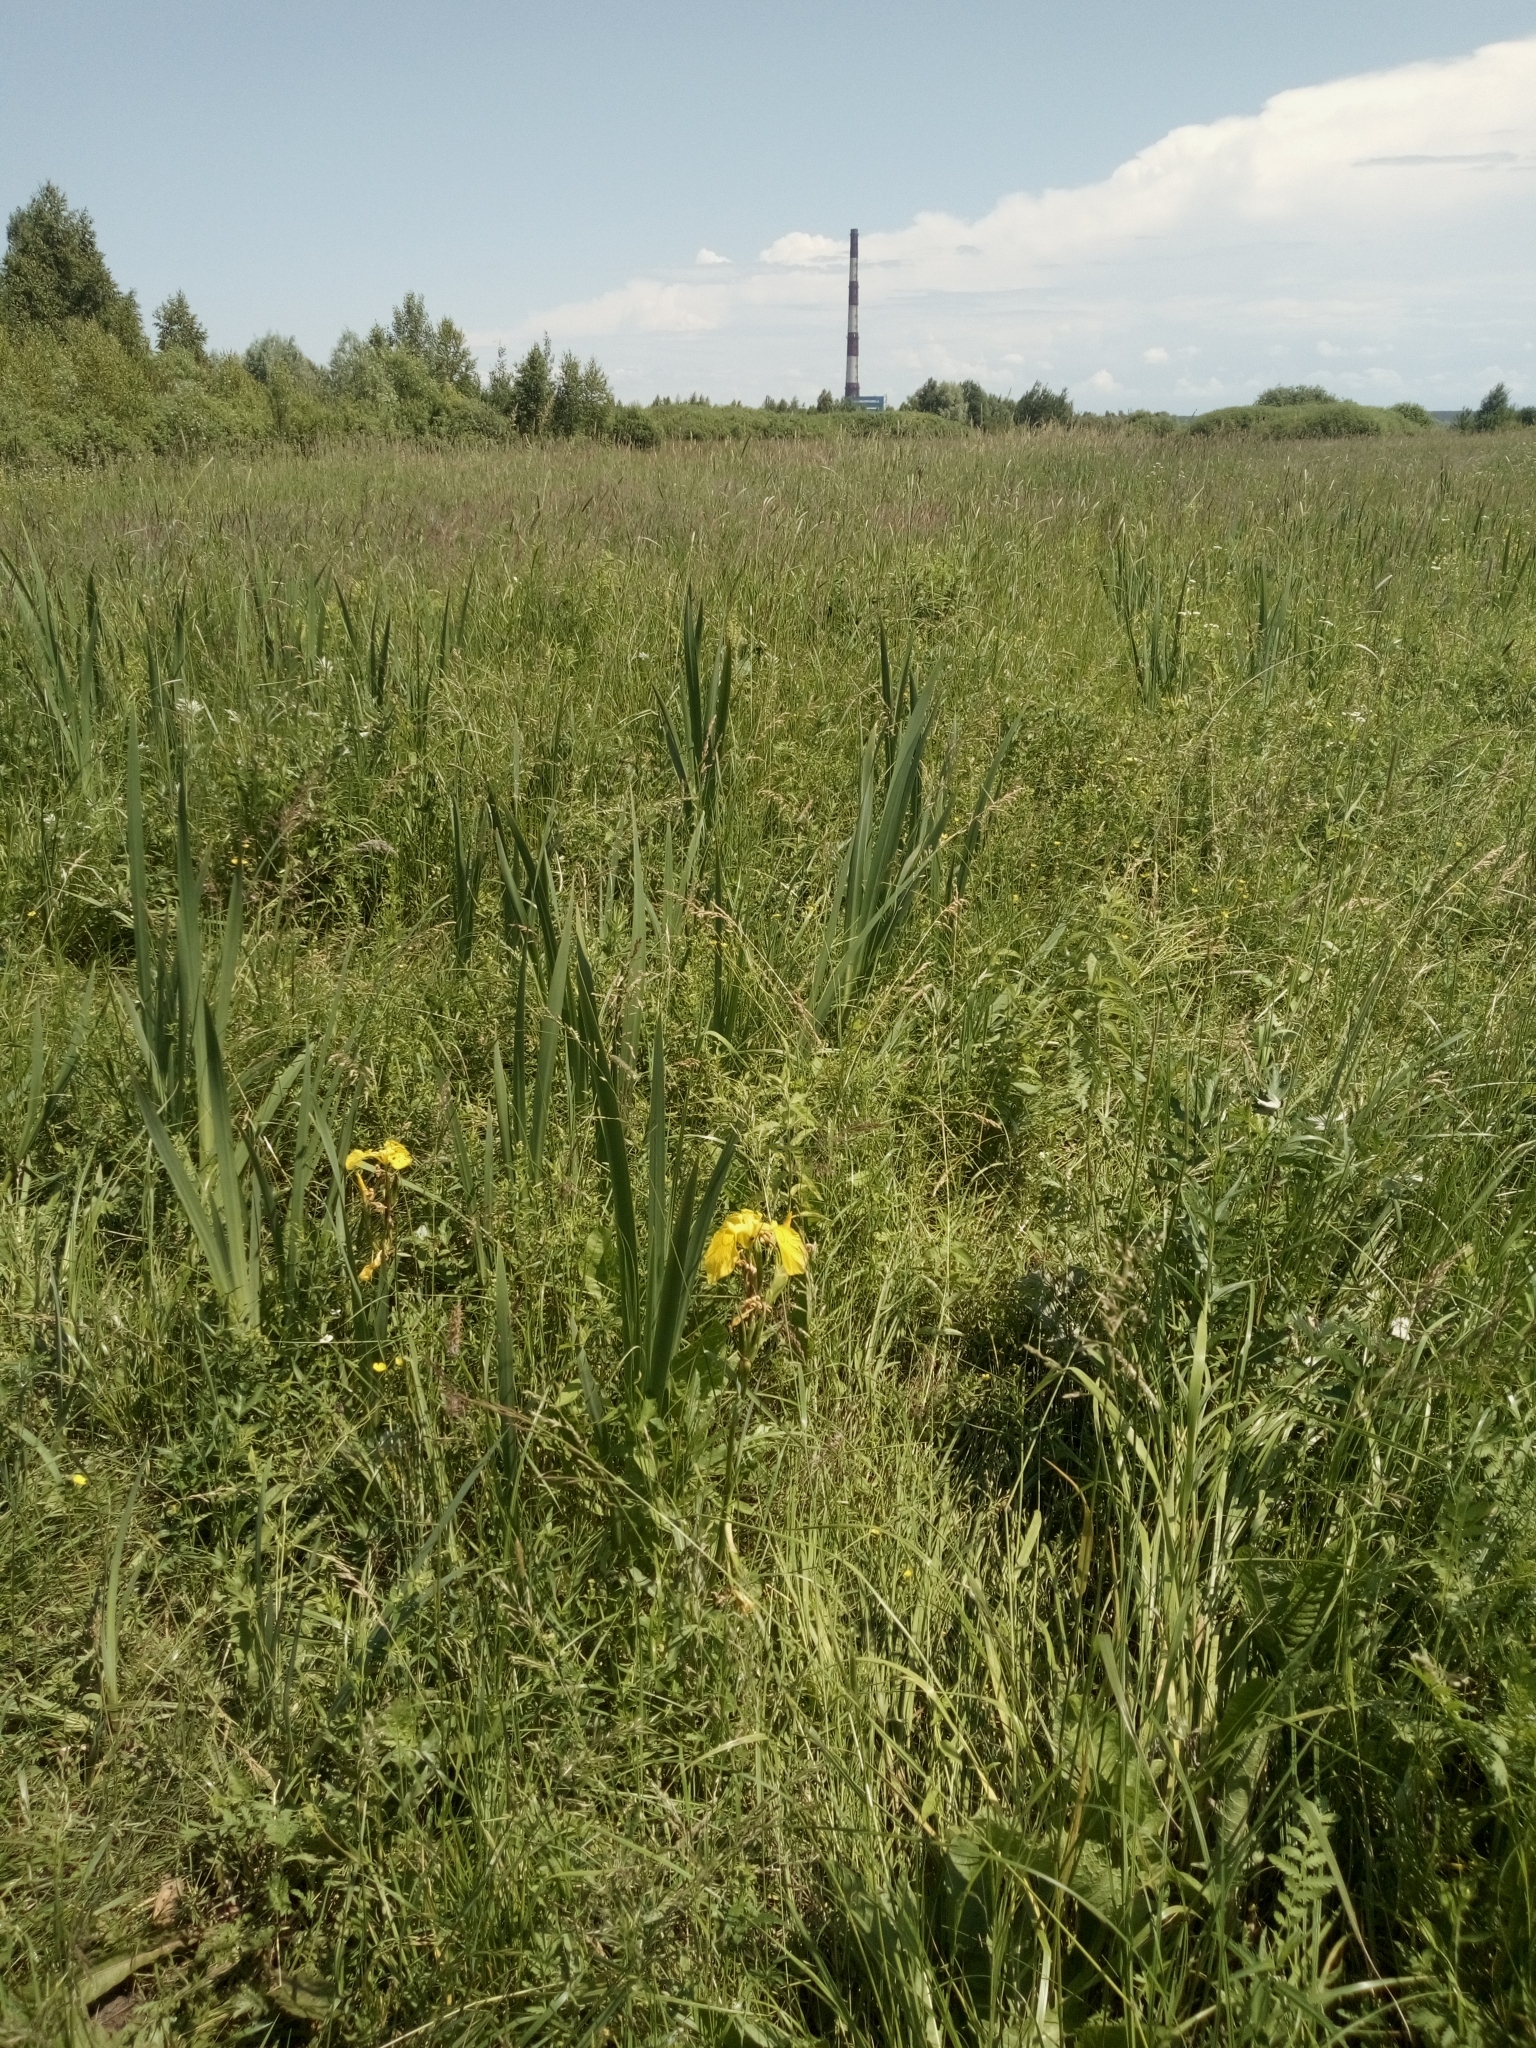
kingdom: Plantae
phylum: Tracheophyta
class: Liliopsida
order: Asparagales
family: Iridaceae
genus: Iris
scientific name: Iris pseudacorus
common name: Yellow flag
